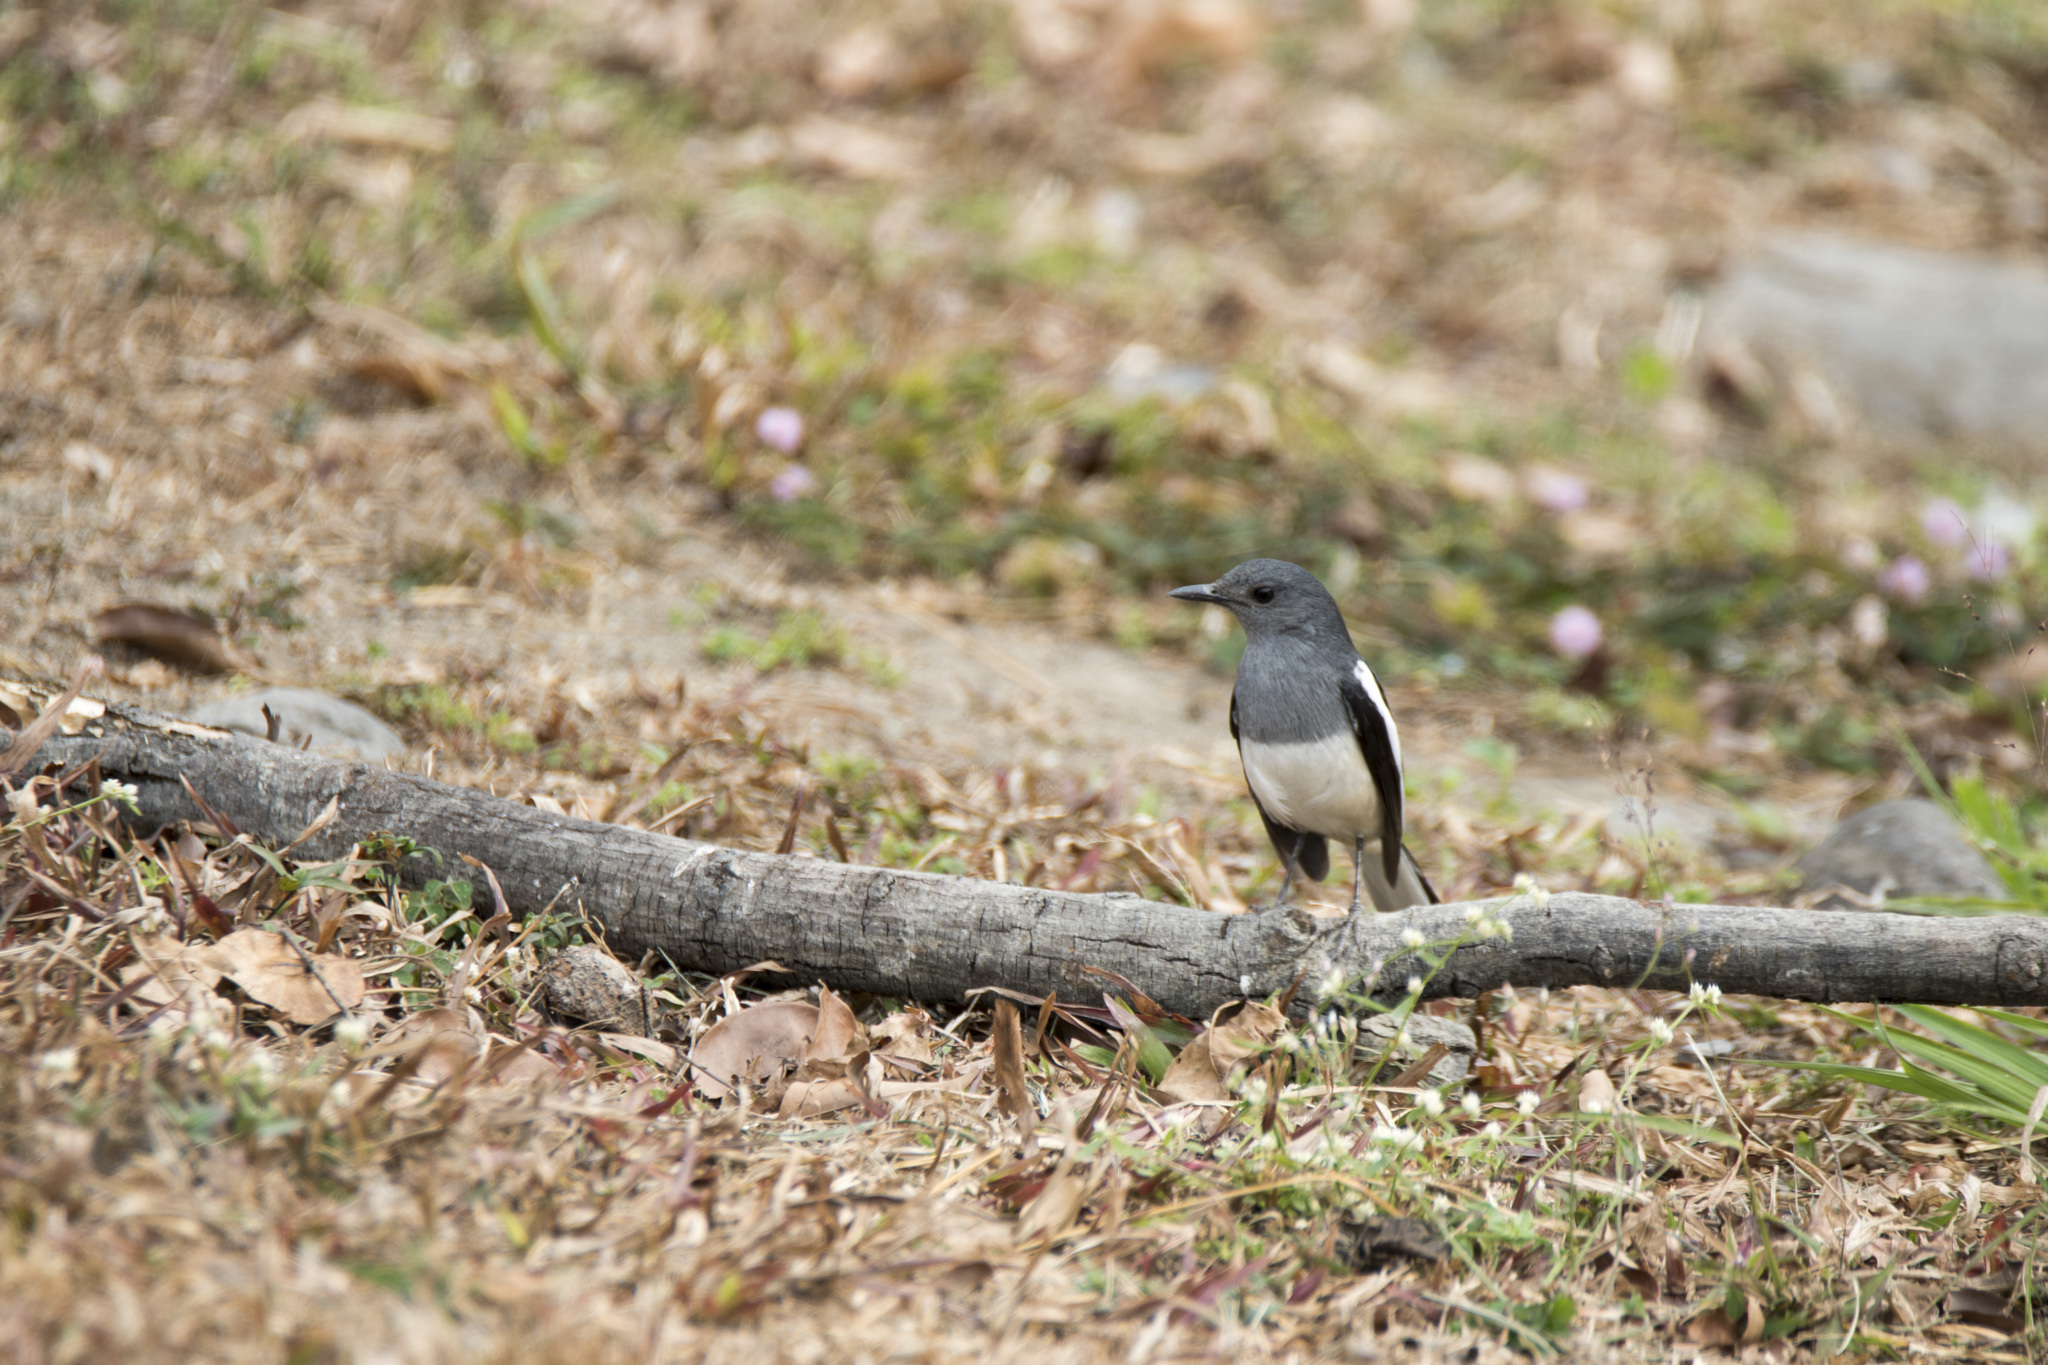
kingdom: Animalia
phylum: Chordata
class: Aves
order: Passeriformes
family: Muscicapidae
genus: Copsychus
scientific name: Copsychus saularis
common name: Oriental magpie-robin
